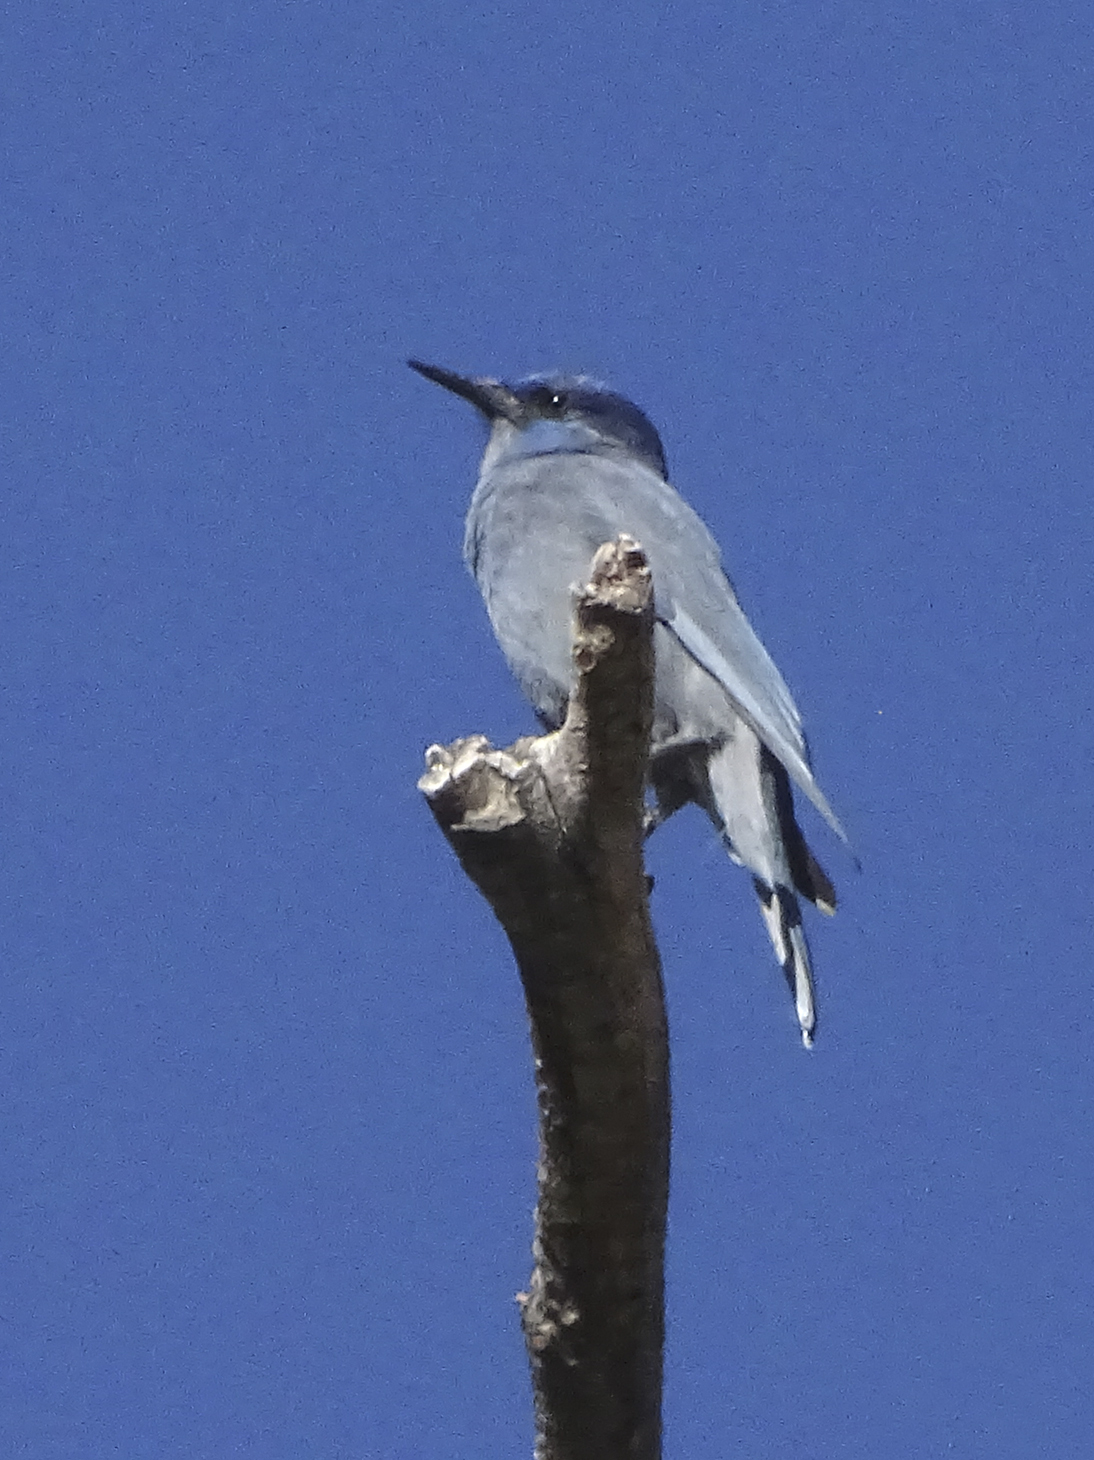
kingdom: Animalia
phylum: Chordata
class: Aves
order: Passeriformes
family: Corvidae
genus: Gymnorhinus
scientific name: Gymnorhinus cyanocephalus
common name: Pinyon jay
